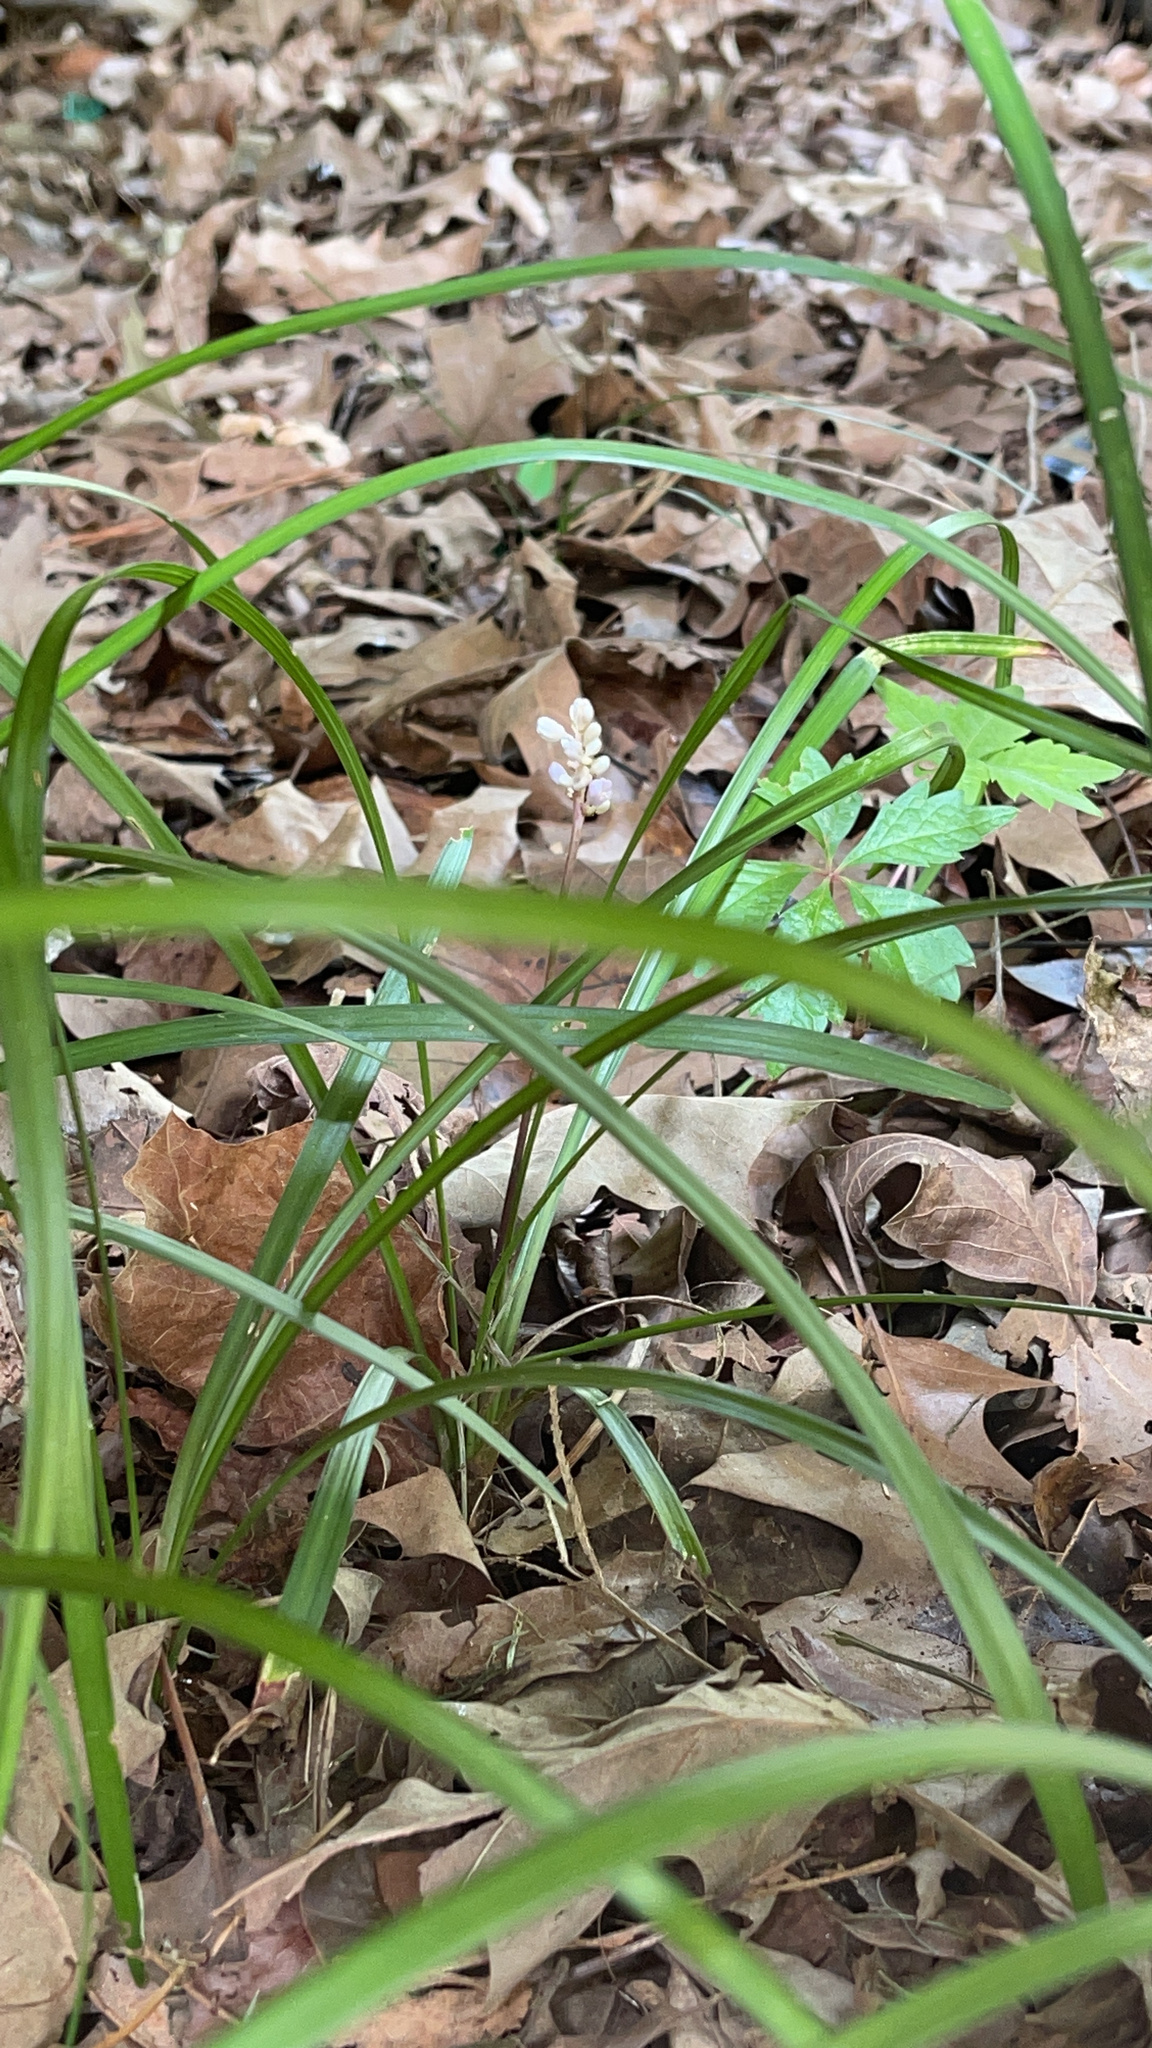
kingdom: Plantae
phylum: Tracheophyta
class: Liliopsida
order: Asparagales
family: Asparagaceae
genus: Liriope
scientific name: Liriope muscari
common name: Big blue lilyturf
